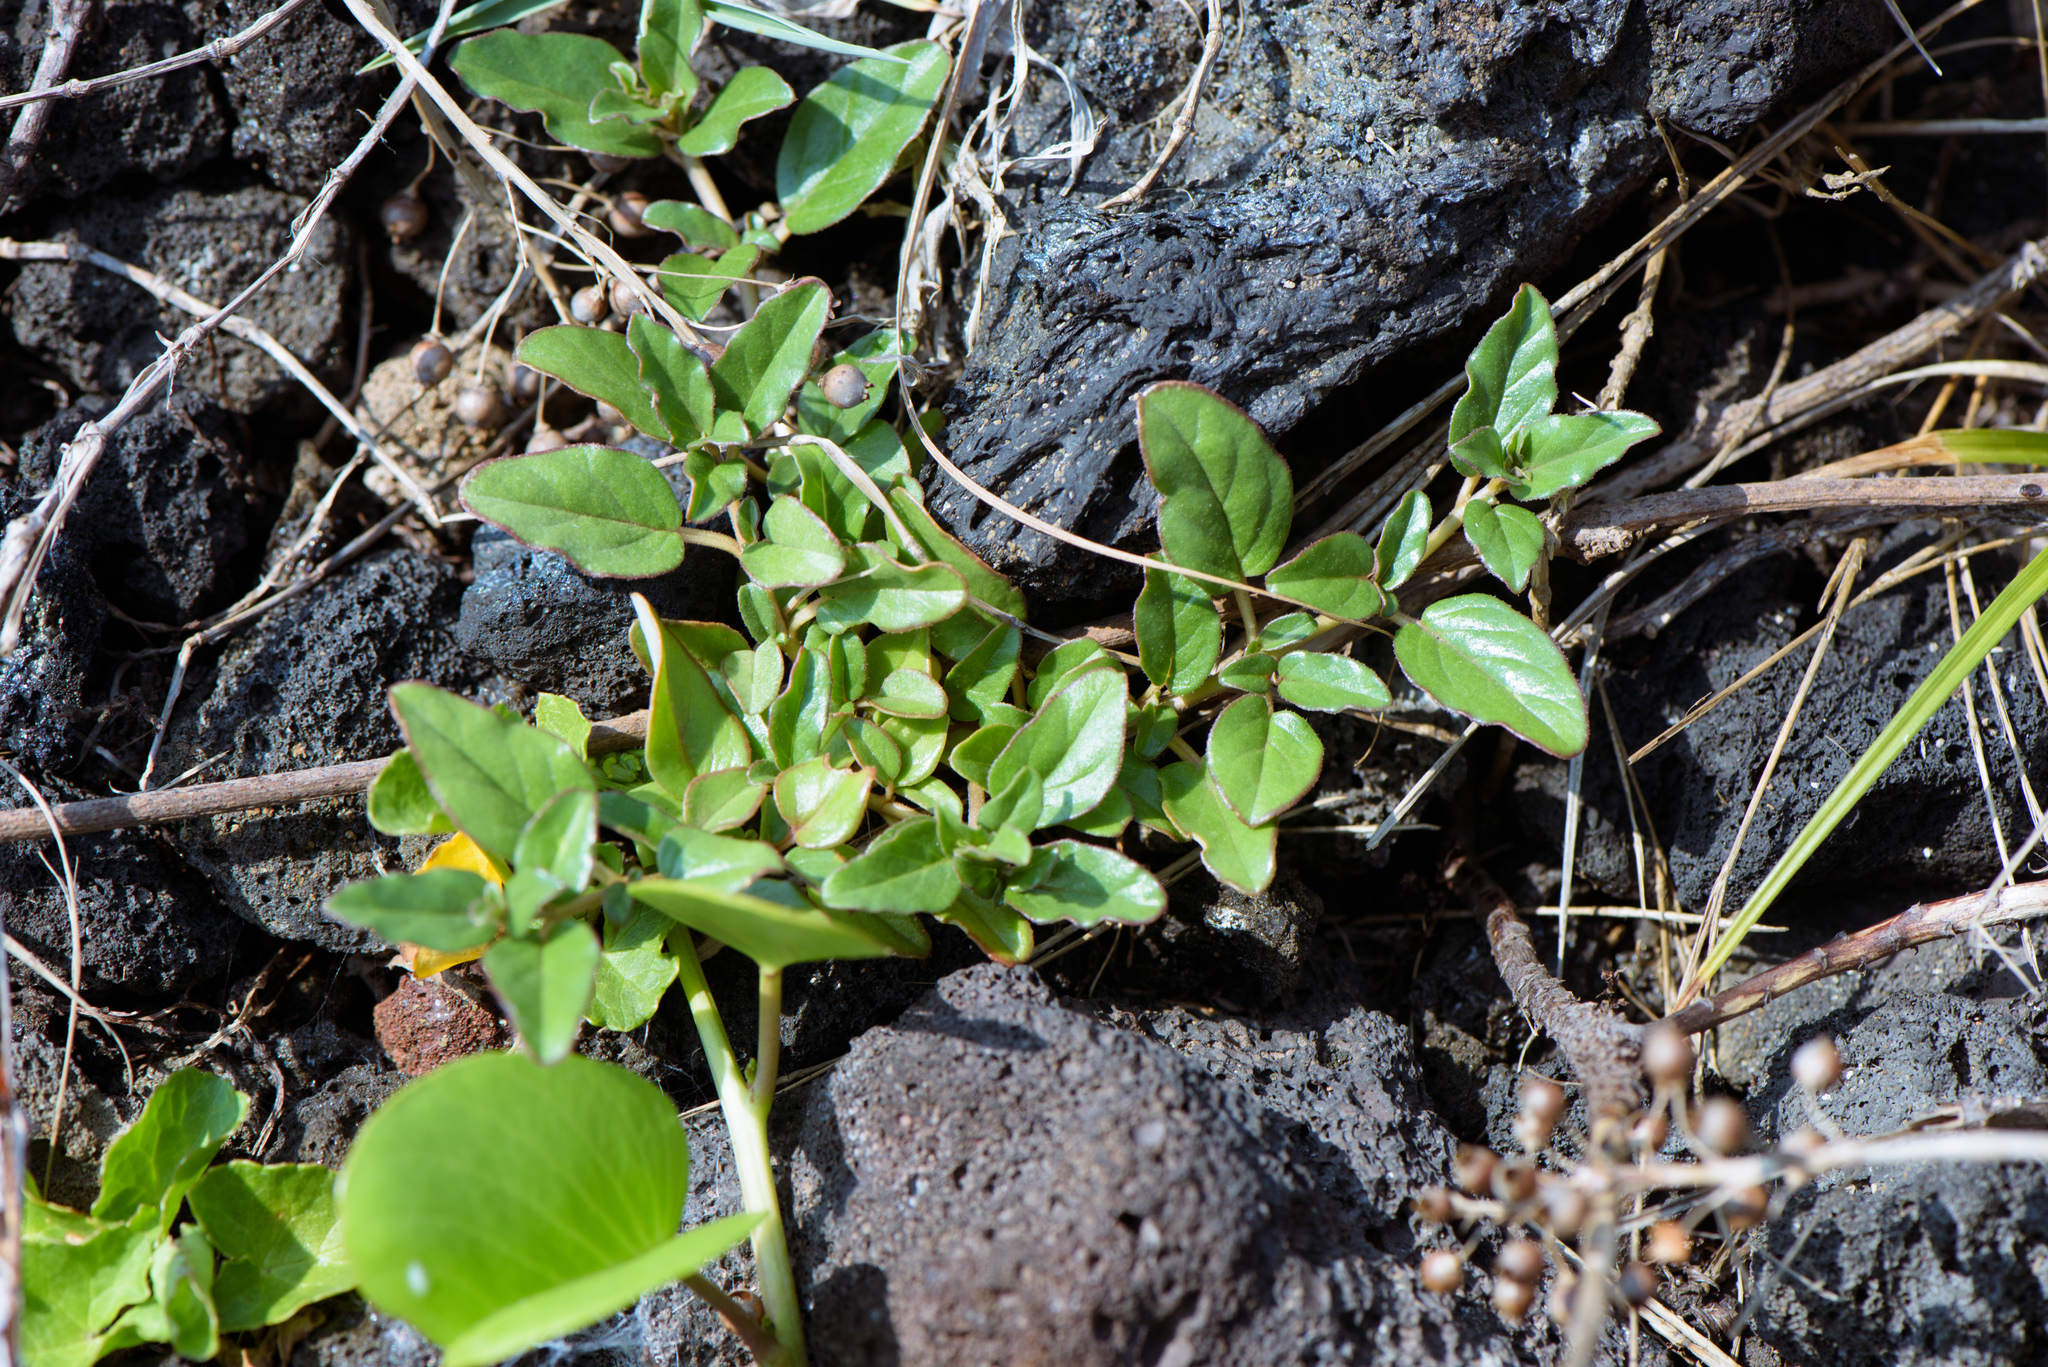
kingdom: Plantae
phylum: Tracheophyta
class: Magnoliopsida
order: Caryophyllales
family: Nyctaginaceae
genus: Boerhavia
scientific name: Boerhavia glabrata
